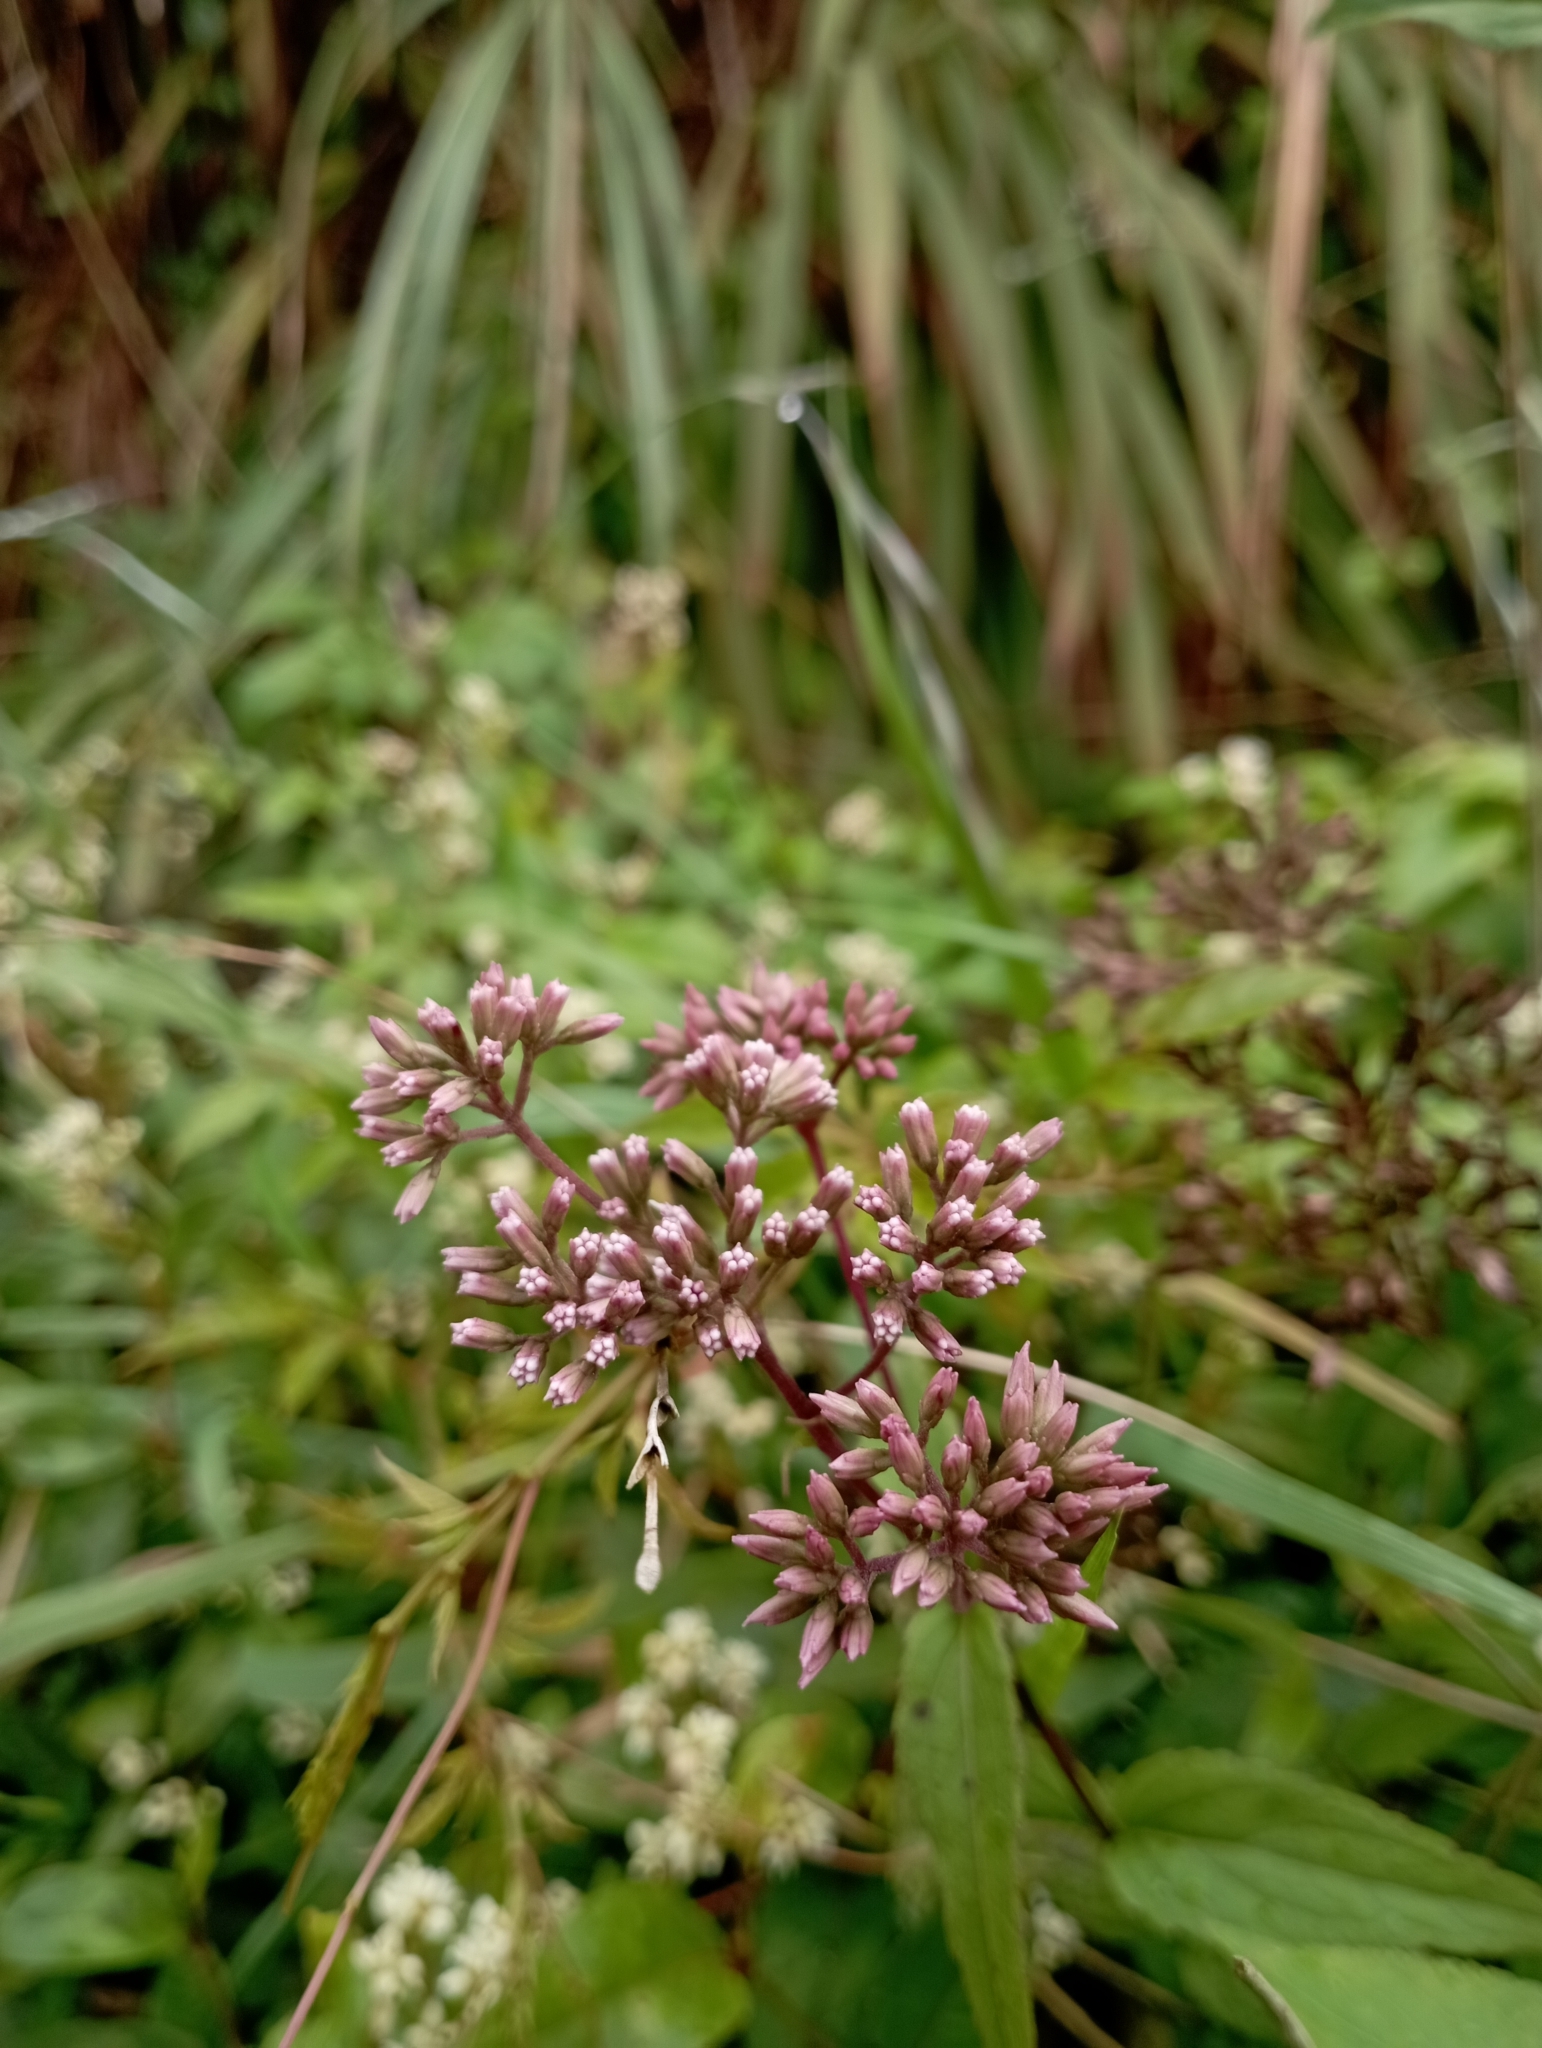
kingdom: Plantae
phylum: Tracheophyta
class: Magnoliopsida
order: Asterales
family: Asteraceae
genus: Eupatorium
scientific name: Eupatorium shimadae
